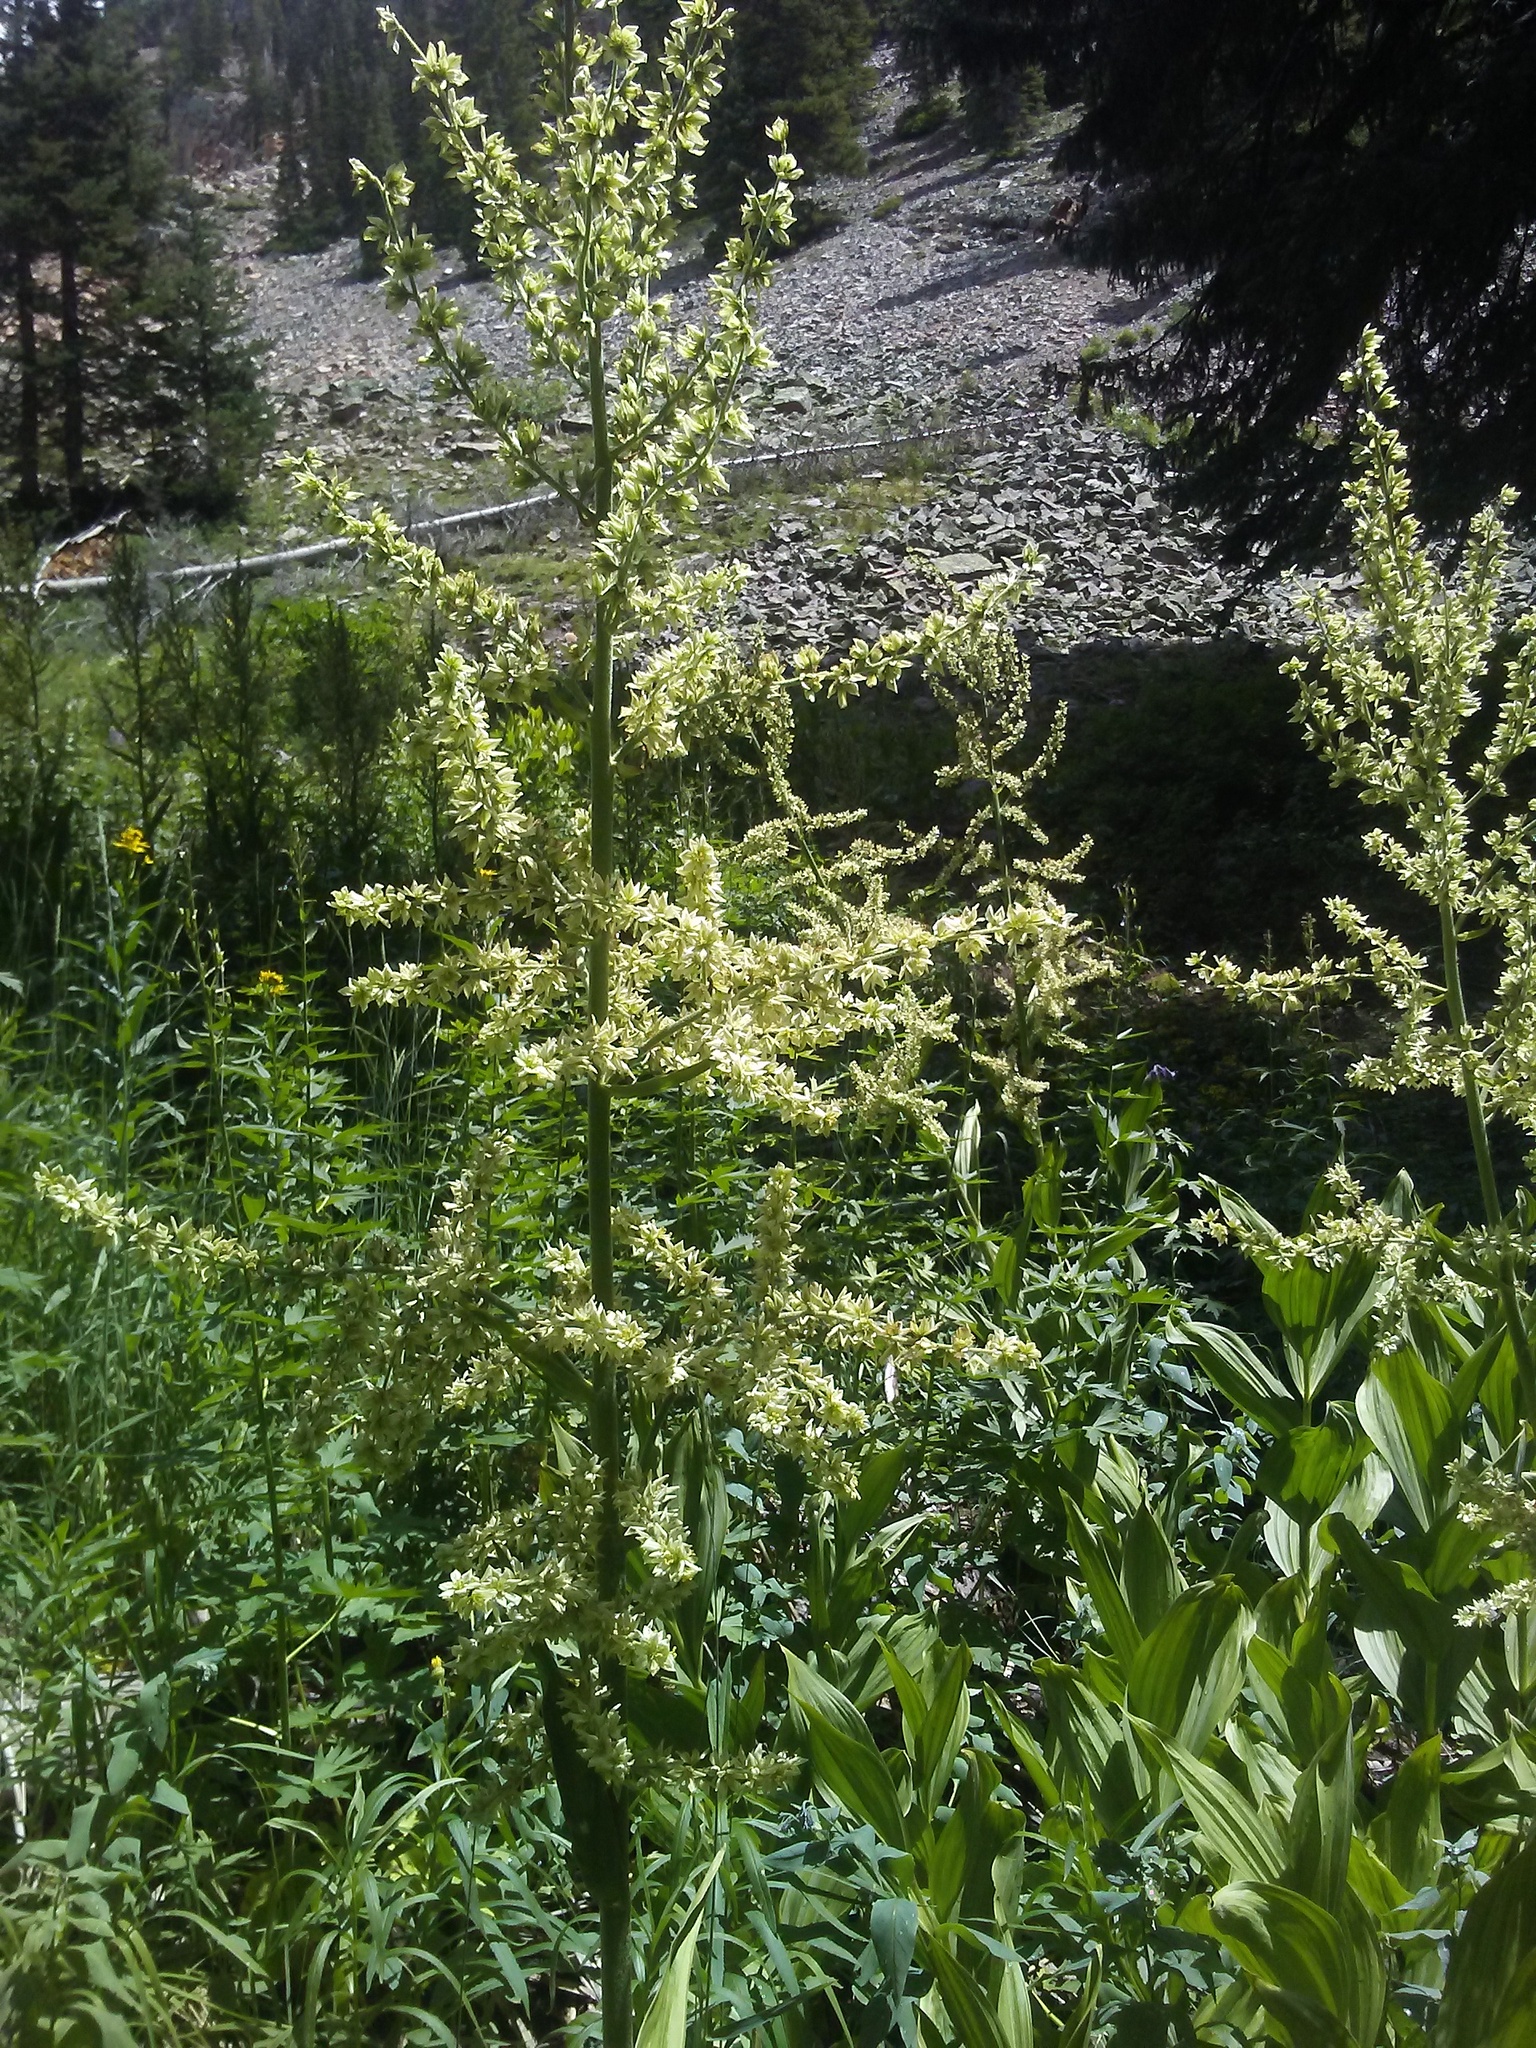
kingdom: Plantae
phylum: Tracheophyta
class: Liliopsida
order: Liliales
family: Melanthiaceae
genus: Veratrum
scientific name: Veratrum californicum
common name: California veratrum
